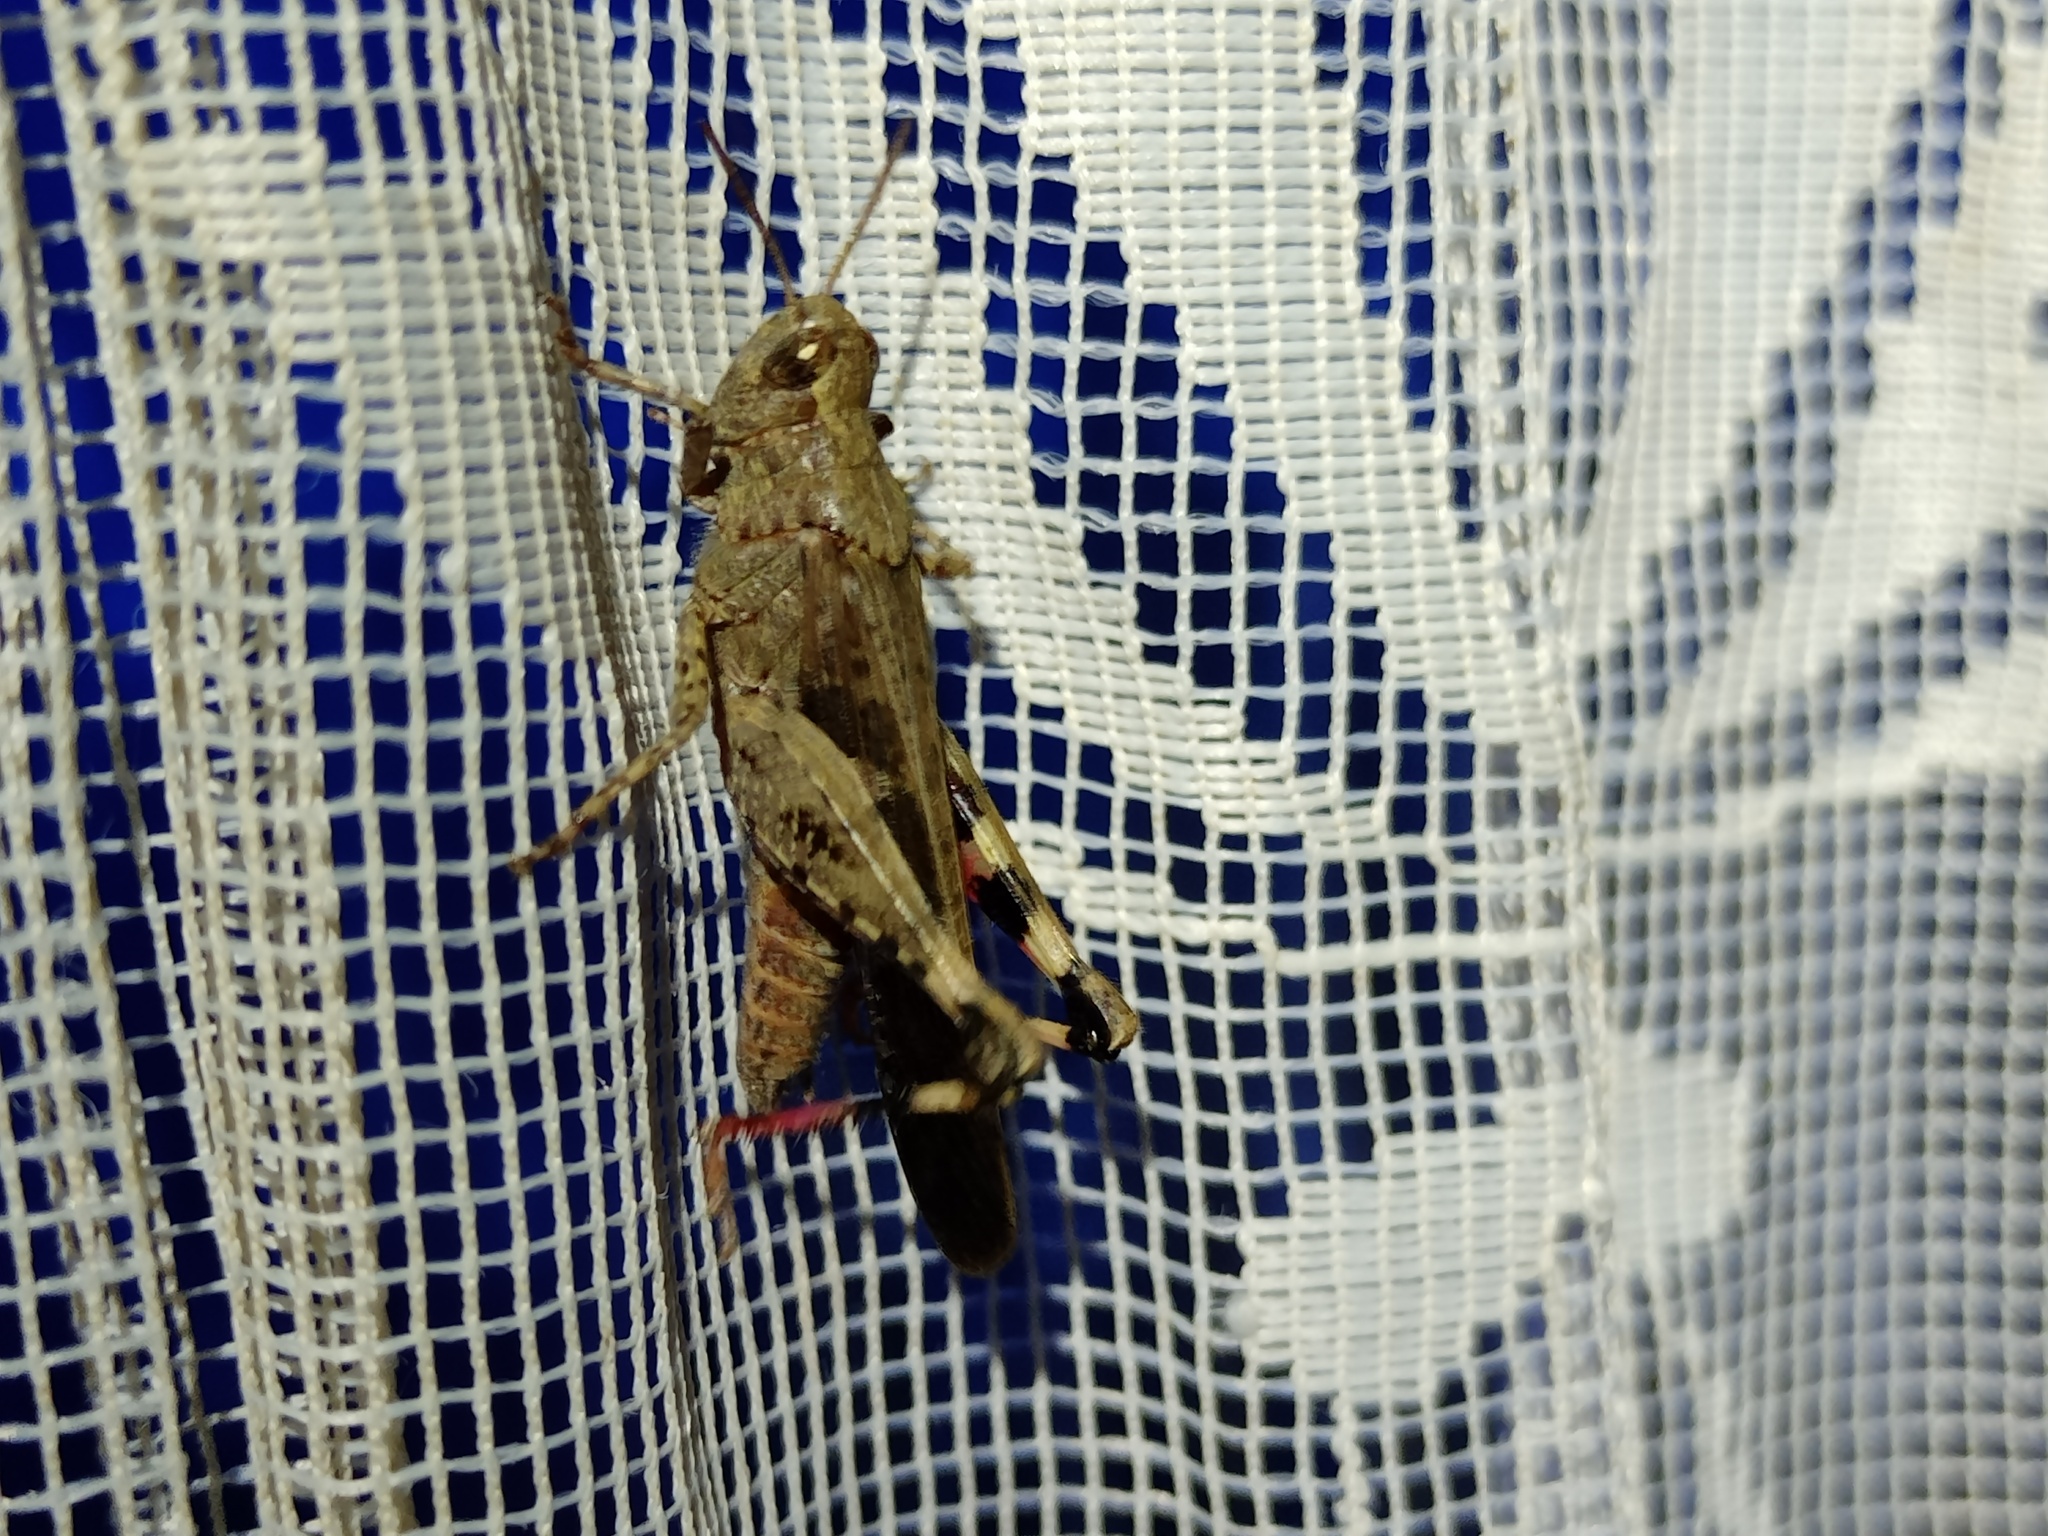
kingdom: Animalia
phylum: Arthropoda
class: Insecta
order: Orthoptera
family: Acrididae
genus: Aiolopus
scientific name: Aiolopus strepens
